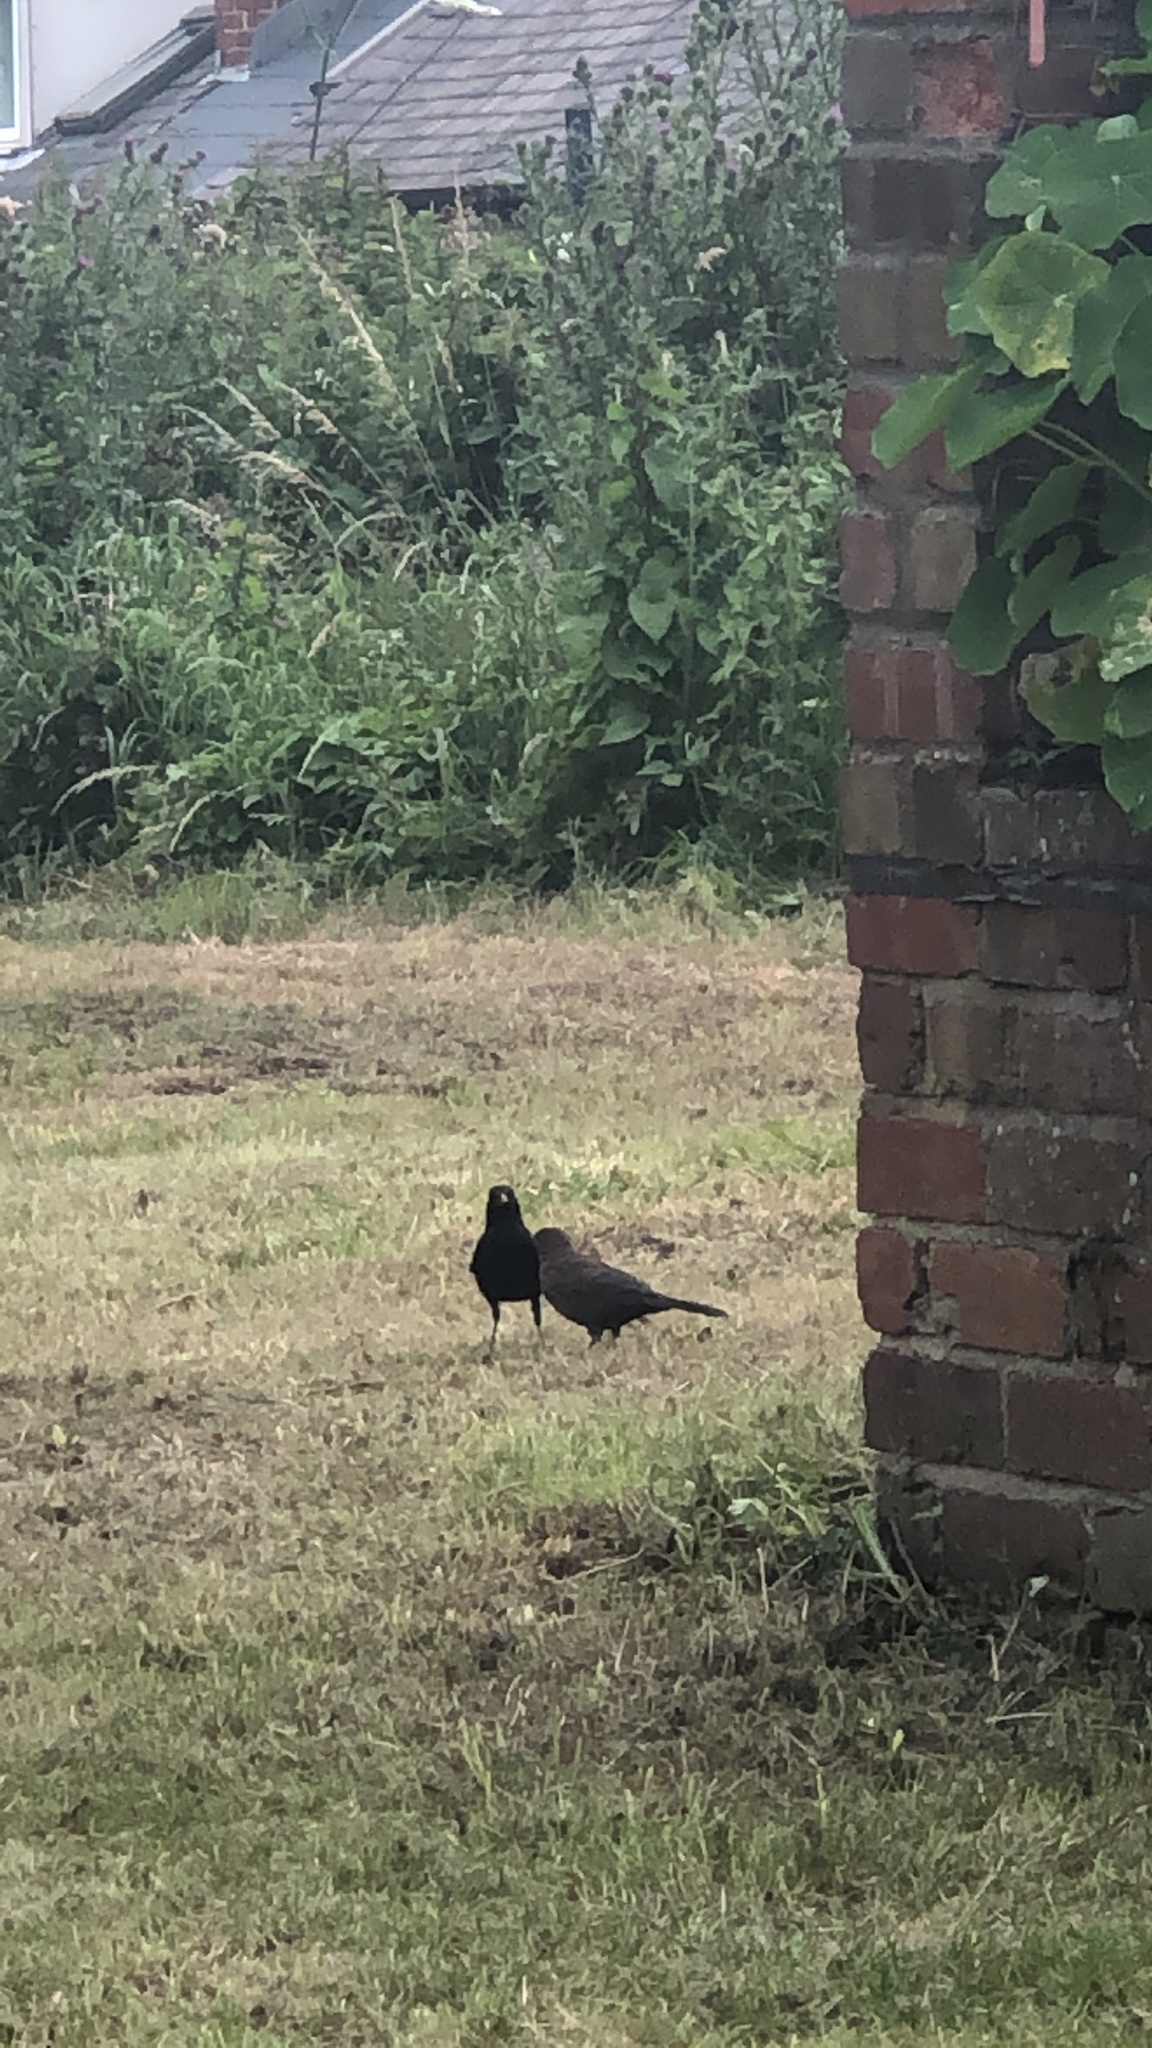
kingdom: Animalia
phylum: Chordata
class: Aves
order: Passeriformes
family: Turdidae
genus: Turdus
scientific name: Turdus merula
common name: Common blackbird
